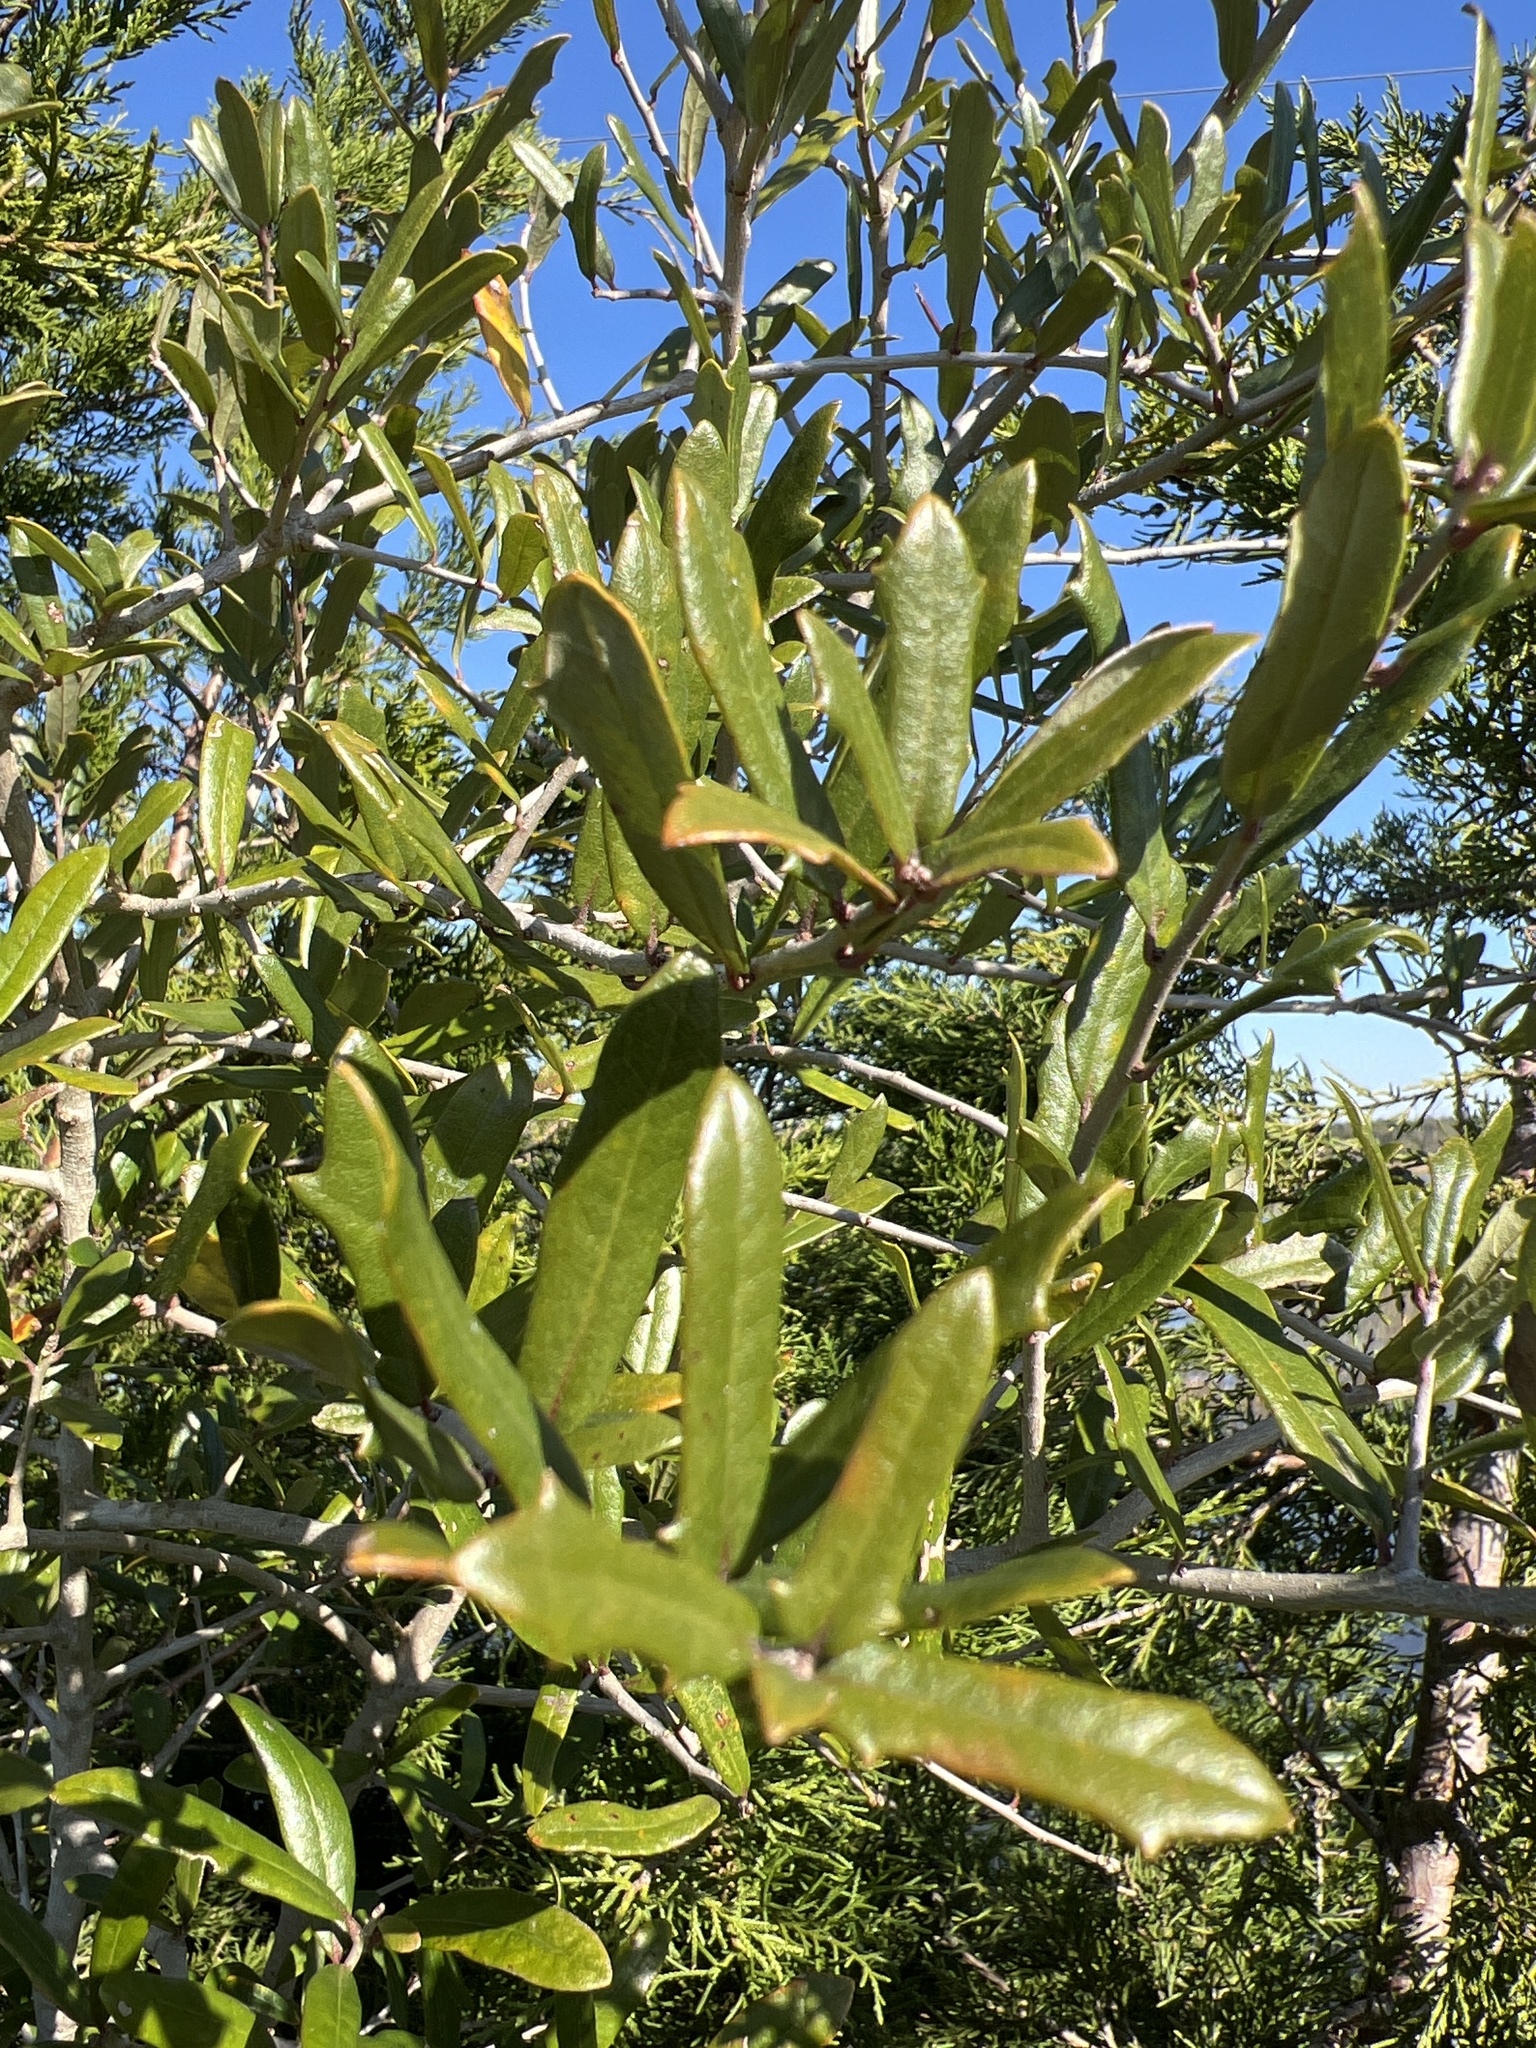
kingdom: Plantae
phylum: Tracheophyta
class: Magnoliopsida
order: Fagales
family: Fagaceae
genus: Quercus
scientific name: Quercus virginiana
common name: Southern live oak
